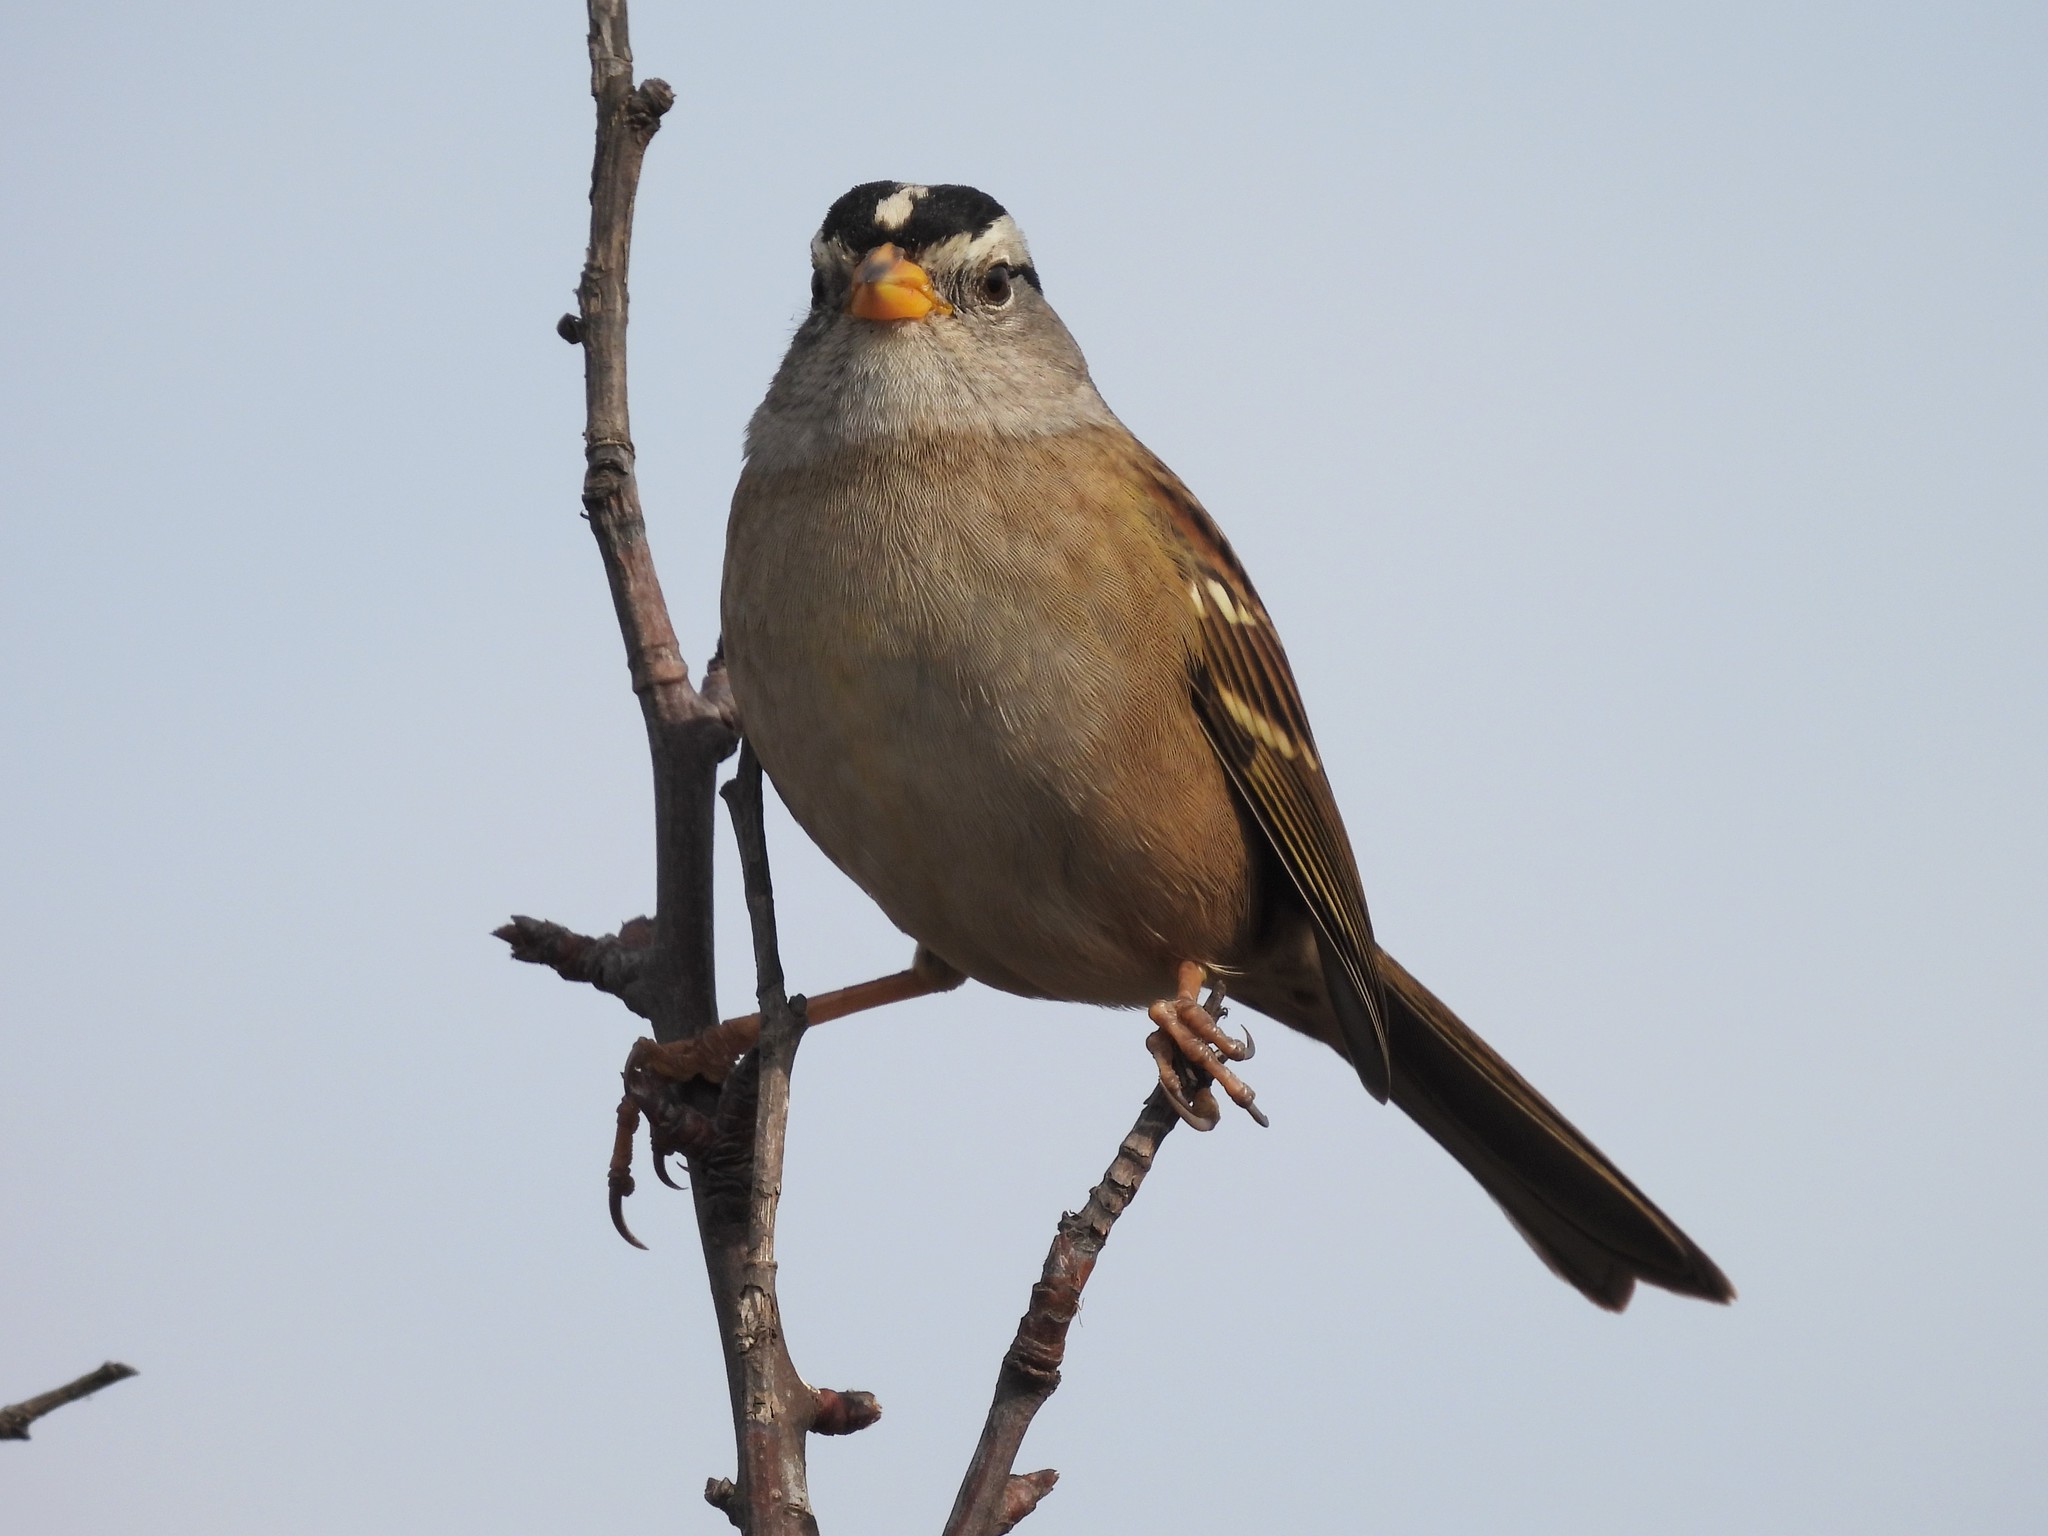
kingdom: Animalia
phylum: Chordata
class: Aves
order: Passeriformes
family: Passerellidae
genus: Zonotrichia
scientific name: Zonotrichia leucophrys
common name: White-crowned sparrow
